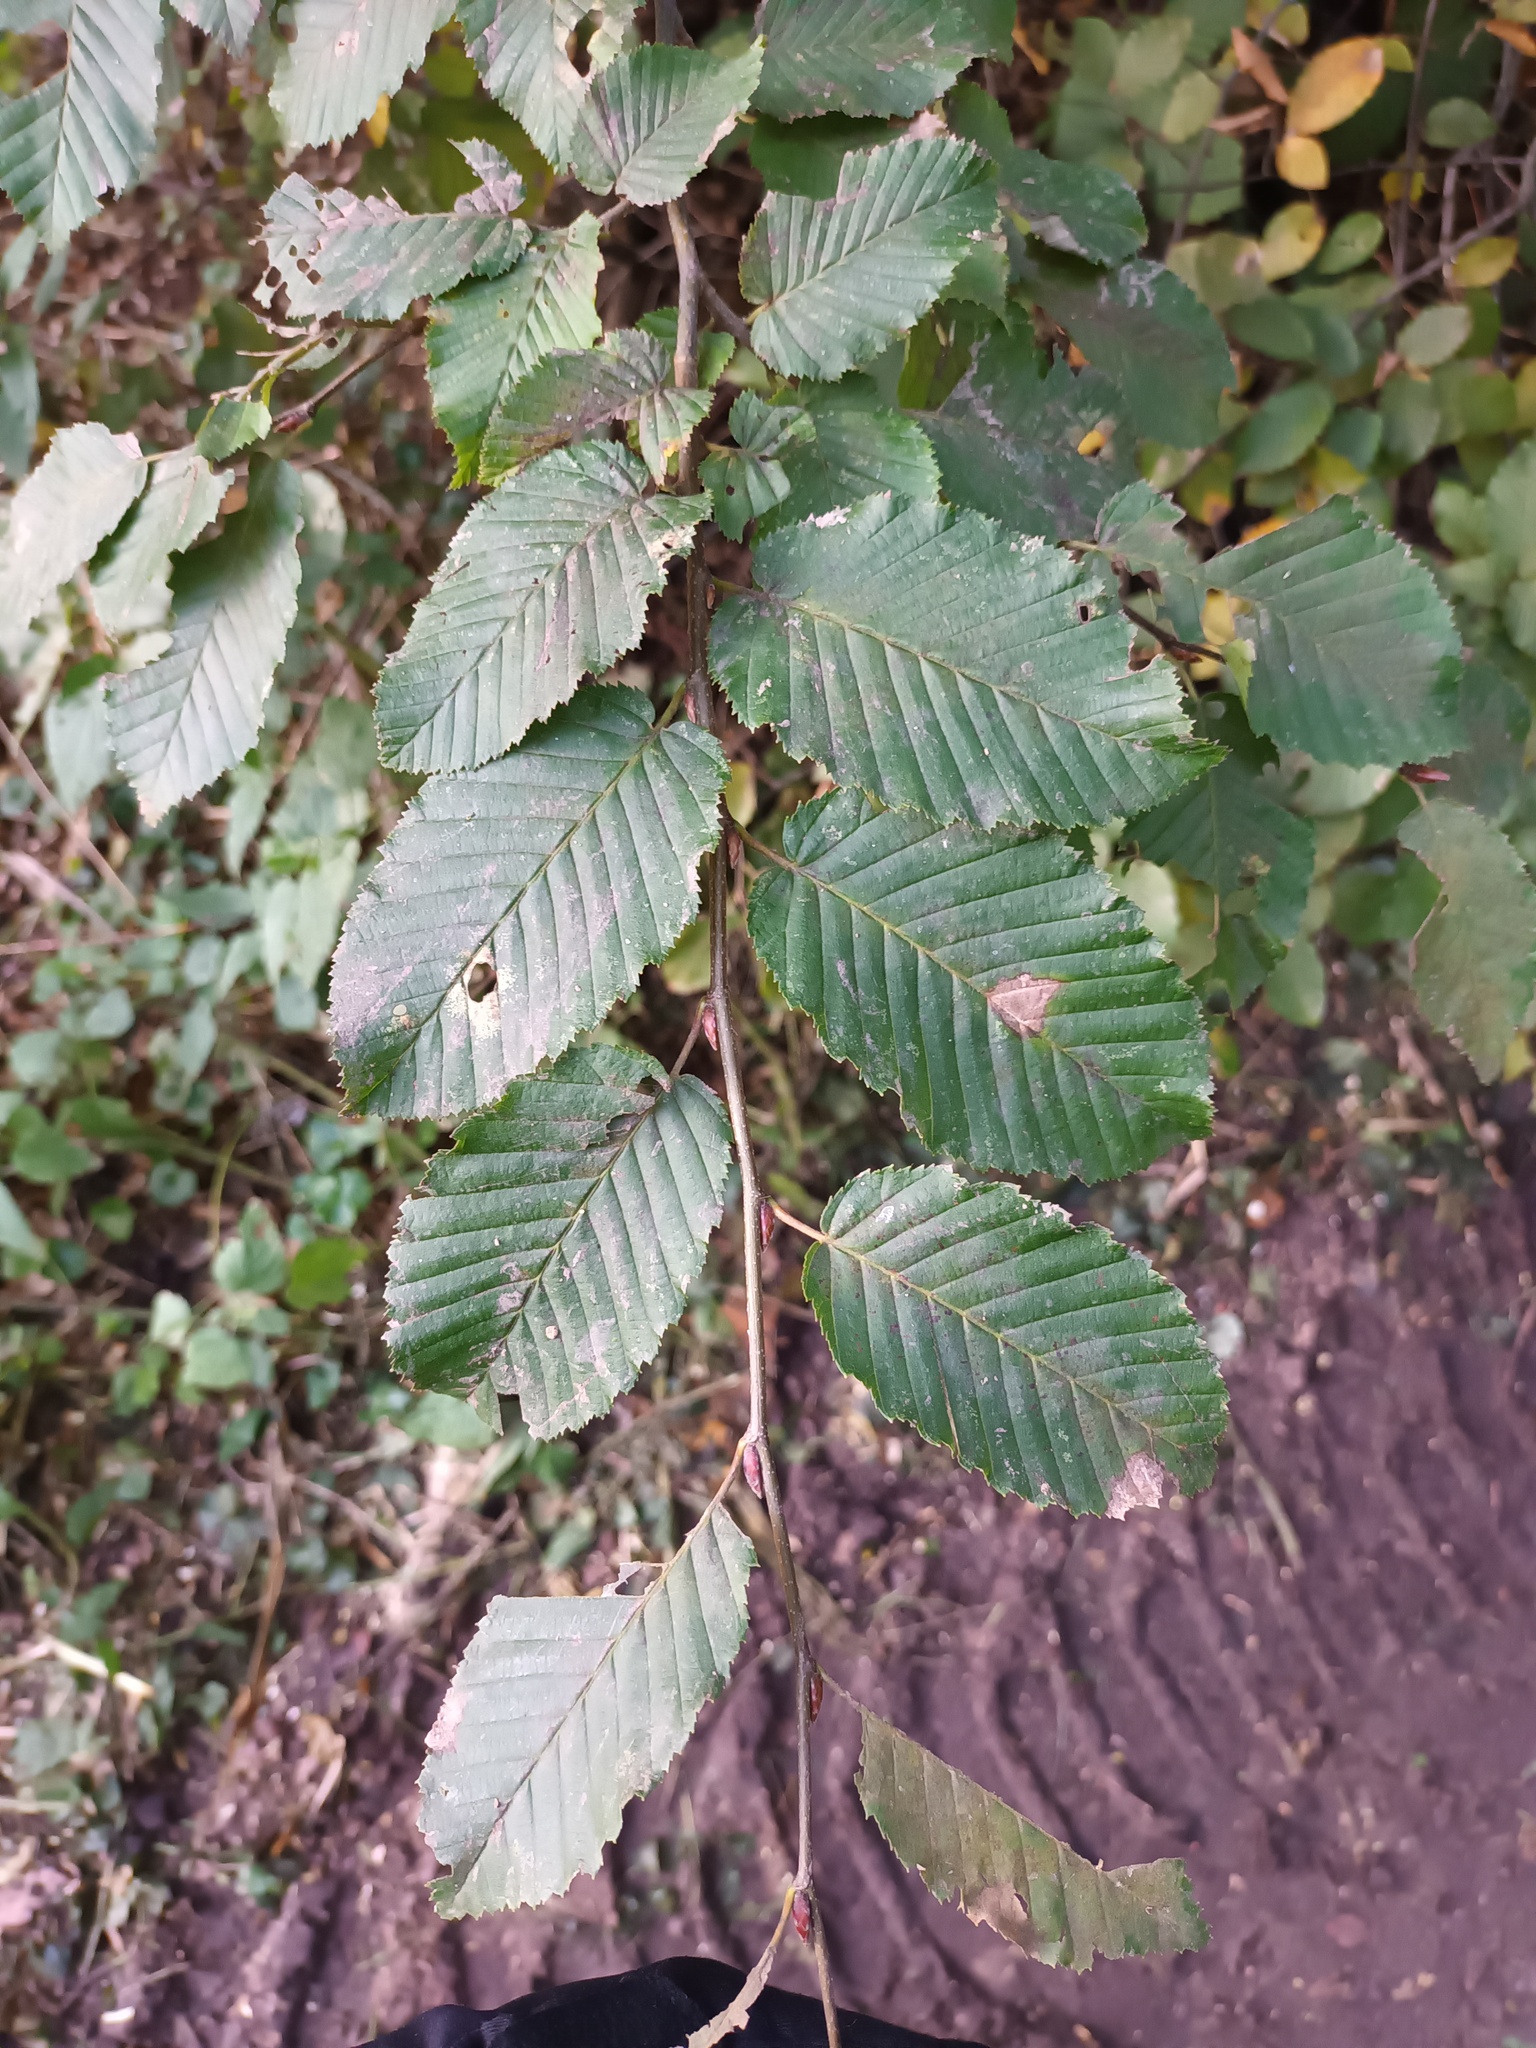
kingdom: Plantae
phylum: Tracheophyta
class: Magnoliopsida
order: Fagales
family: Betulaceae
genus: Carpinus
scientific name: Carpinus betulus
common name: Hornbeam
